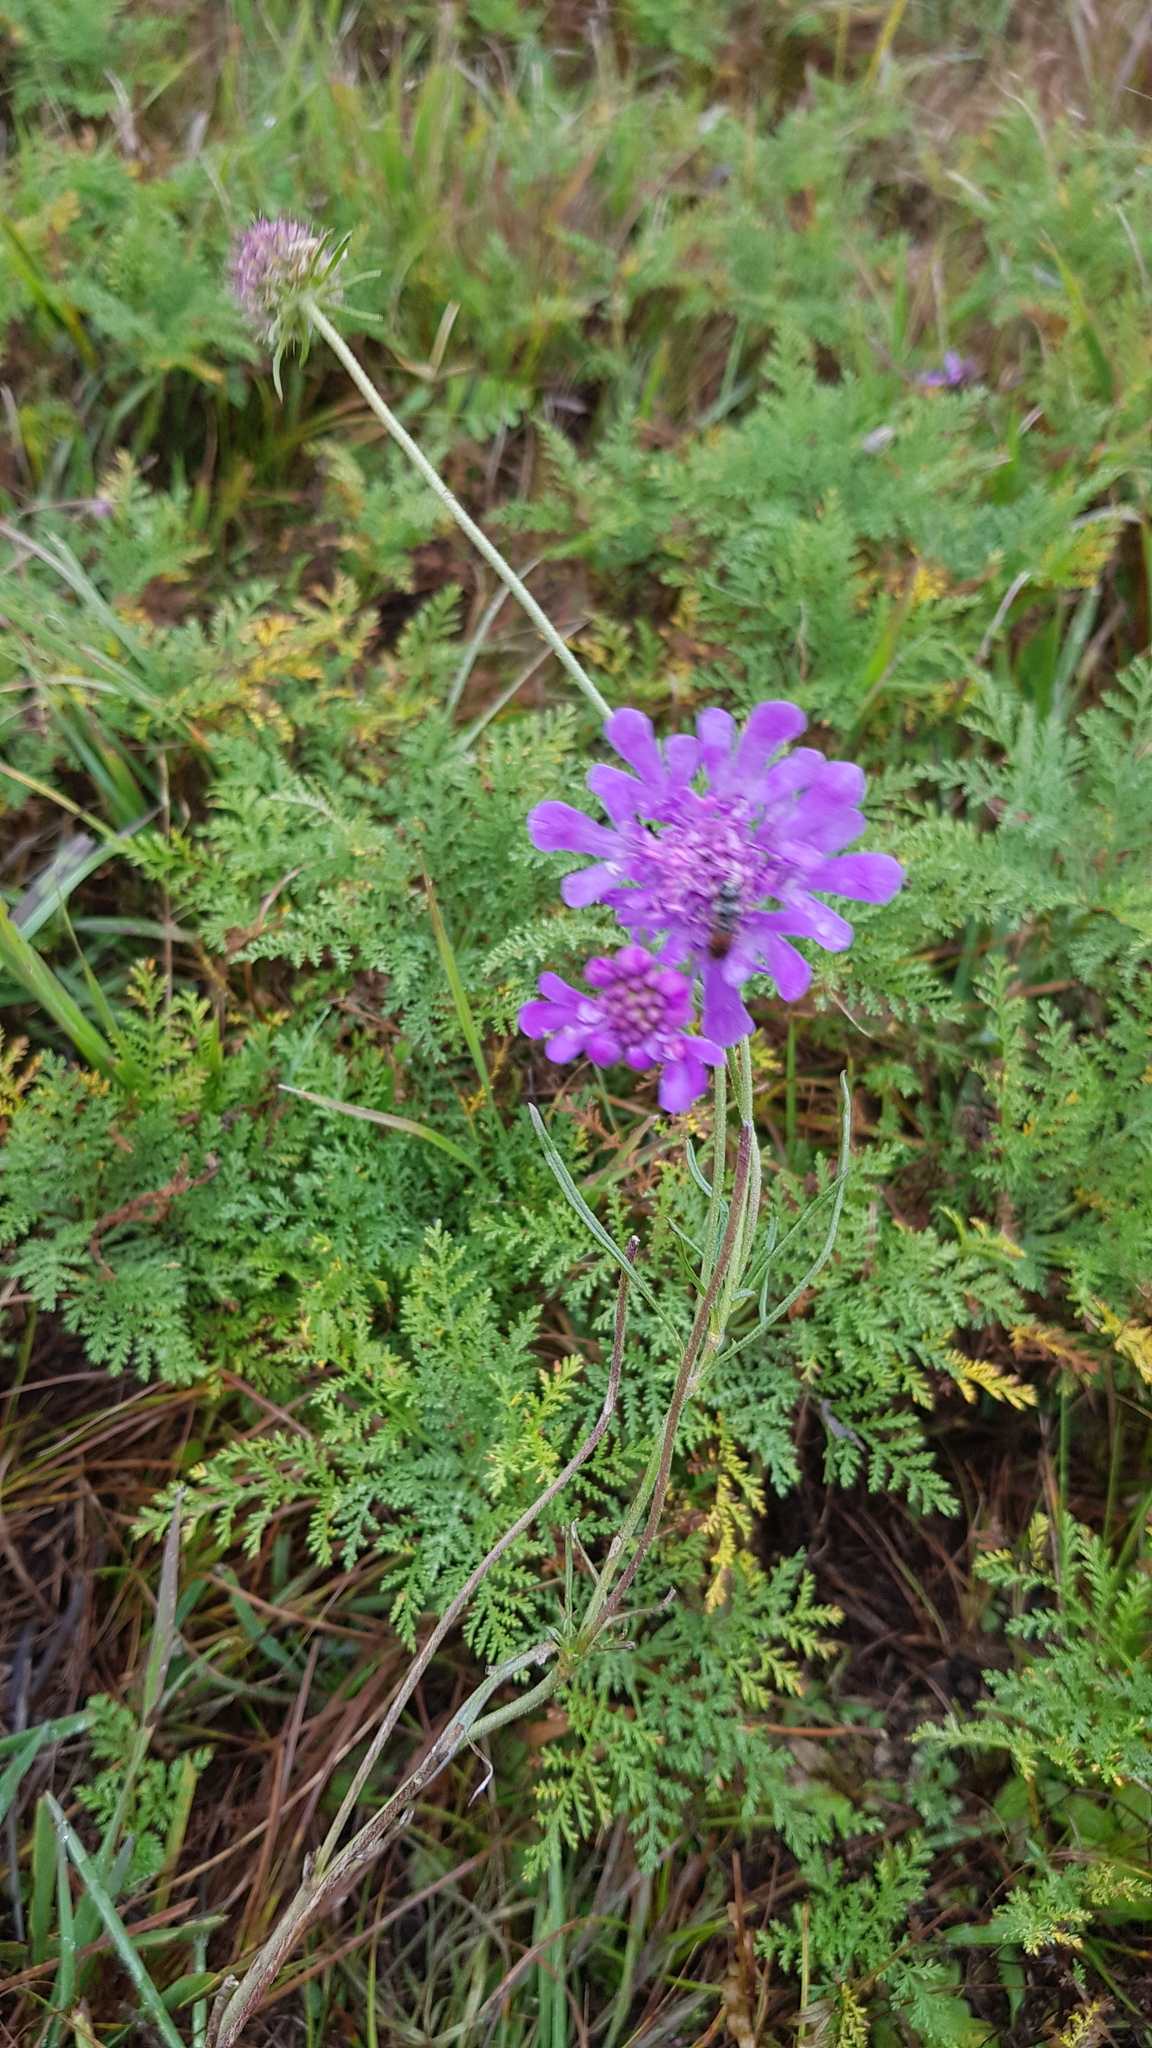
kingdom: Plantae
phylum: Tracheophyta
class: Magnoliopsida
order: Dipsacales
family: Caprifoliaceae
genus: Scabiosa
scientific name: Scabiosa comosa
